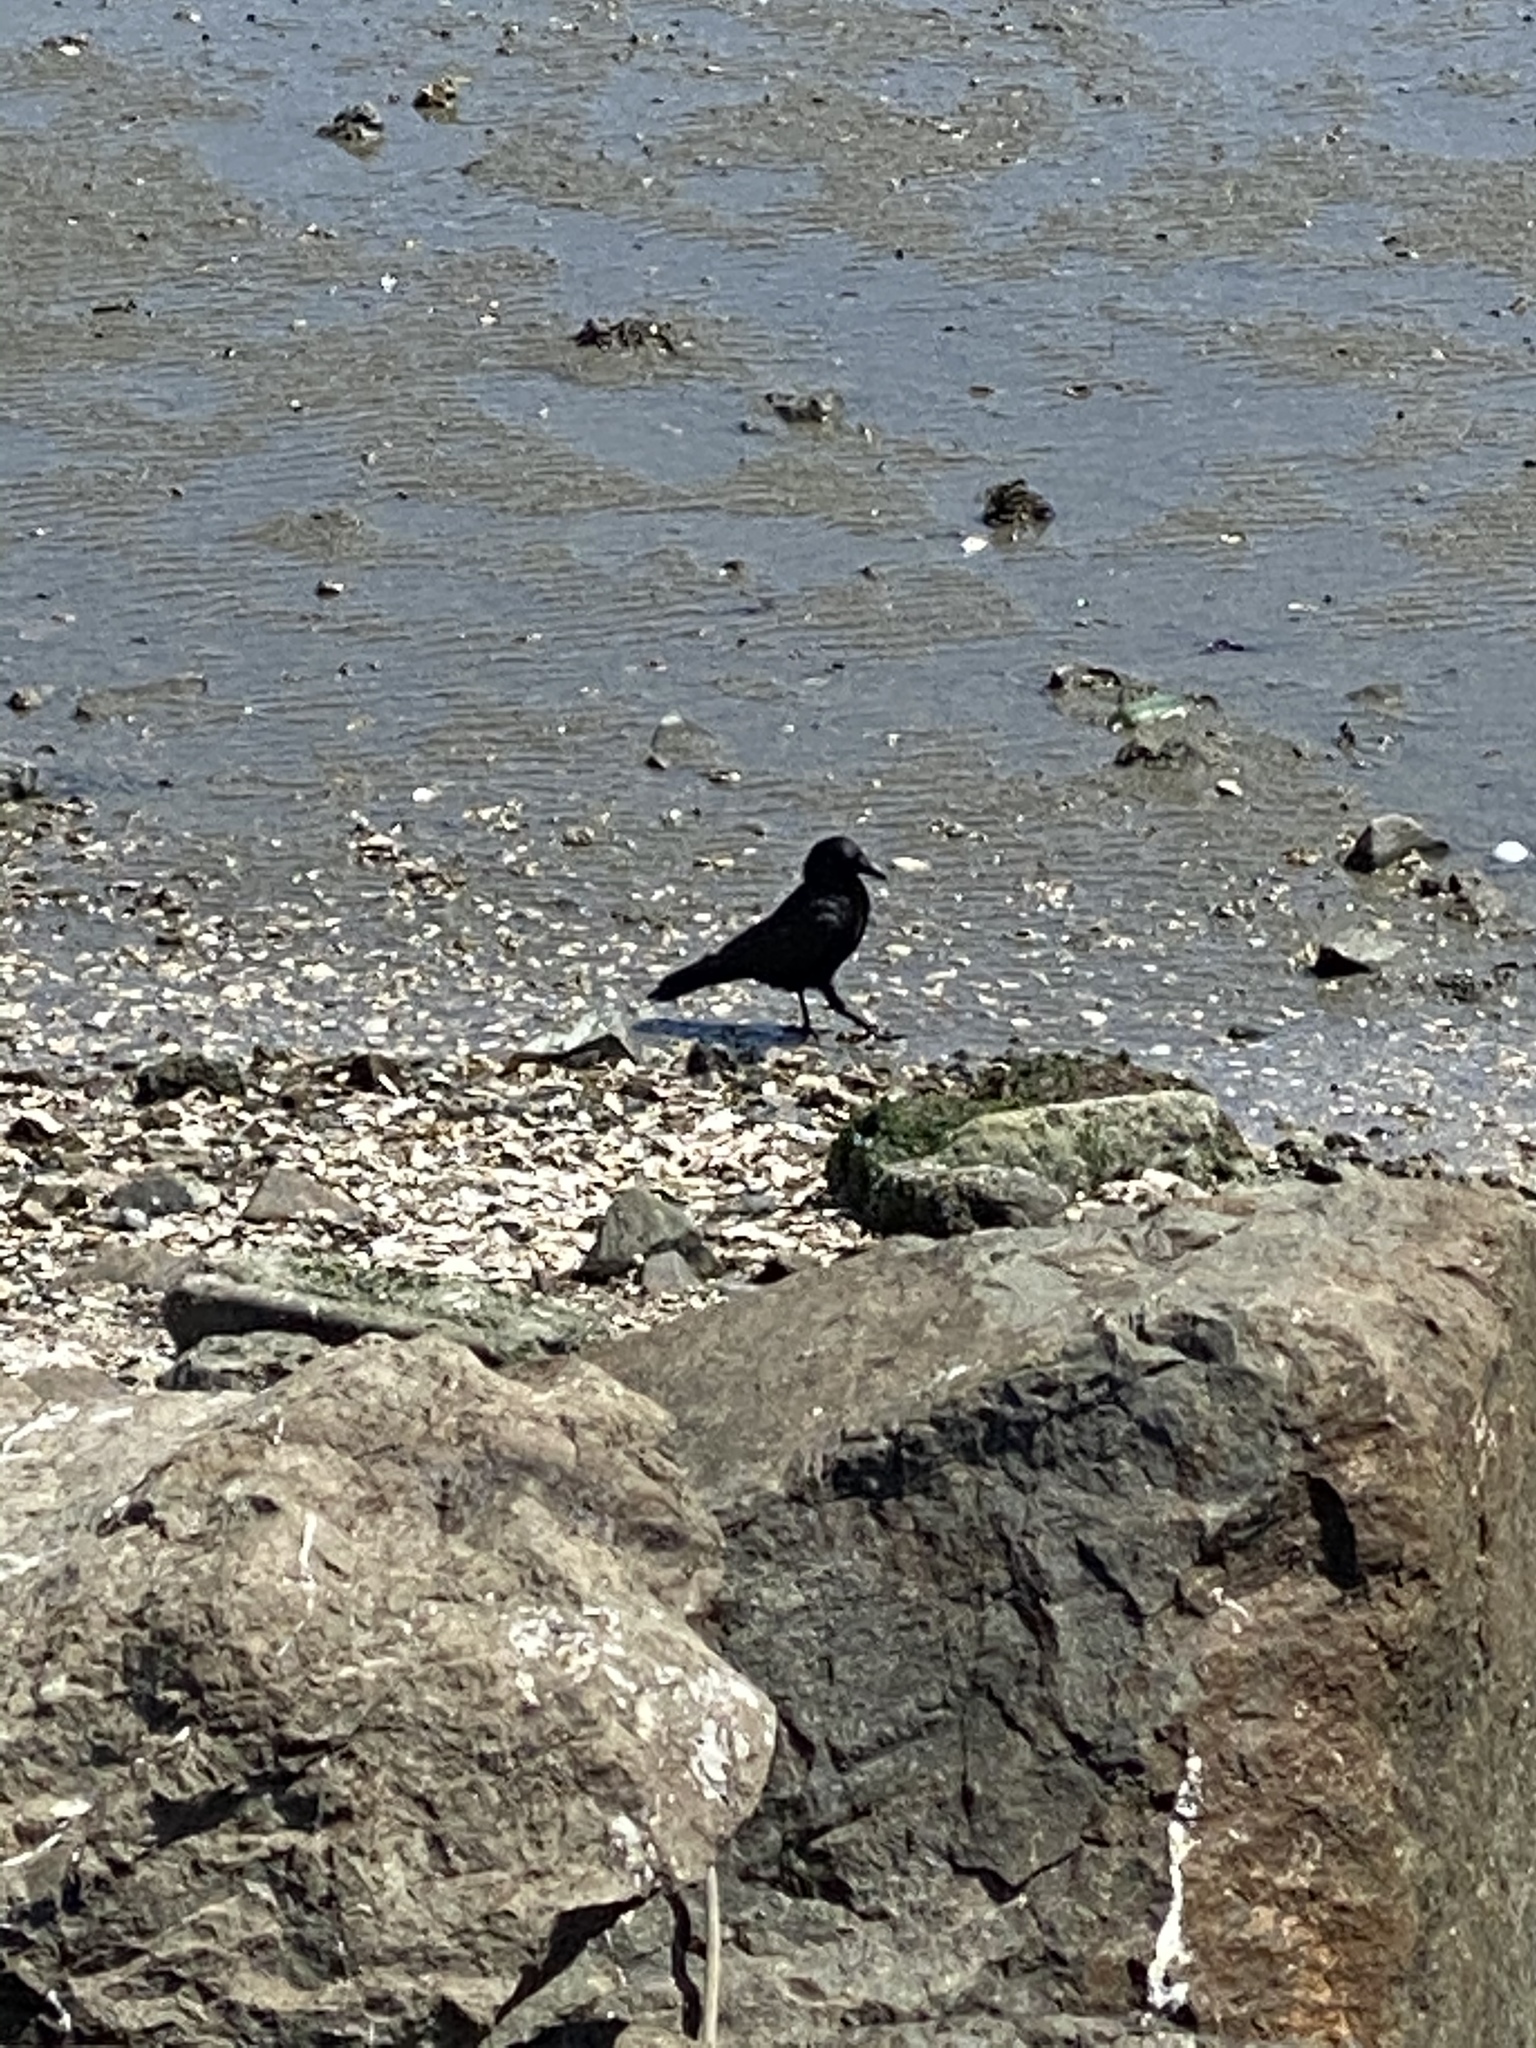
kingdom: Animalia
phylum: Chordata
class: Aves
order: Passeriformes
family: Corvidae
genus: Corvus
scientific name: Corvus brachyrhynchos
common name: American crow
